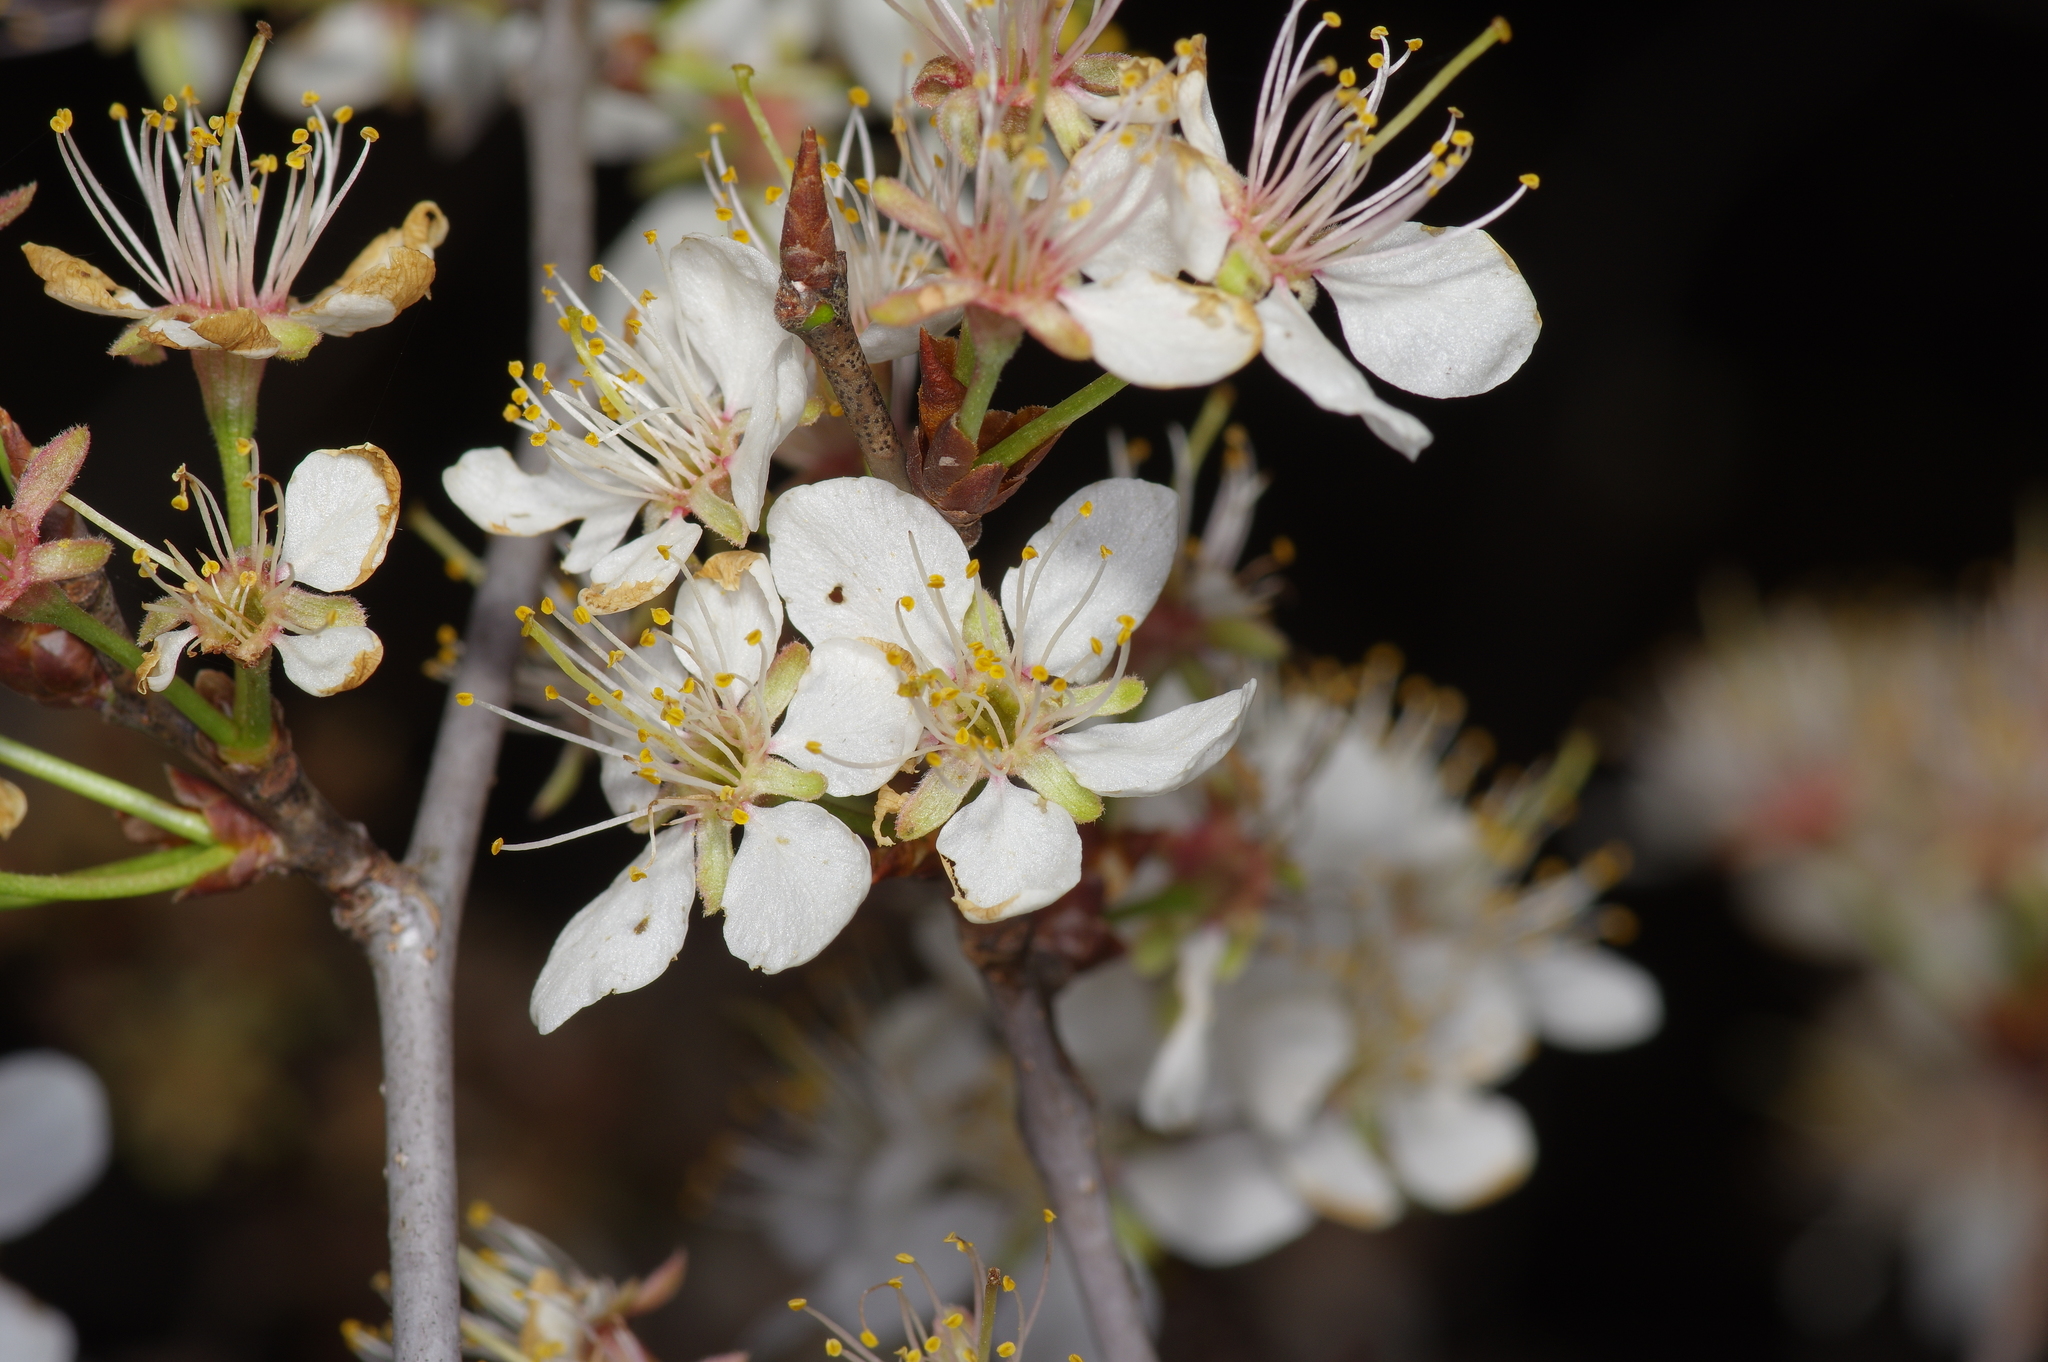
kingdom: Plantae
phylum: Tracheophyta
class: Magnoliopsida
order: Rosales
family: Rosaceae
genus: Prunus
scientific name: Prunus mexicana
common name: Mexican plum
